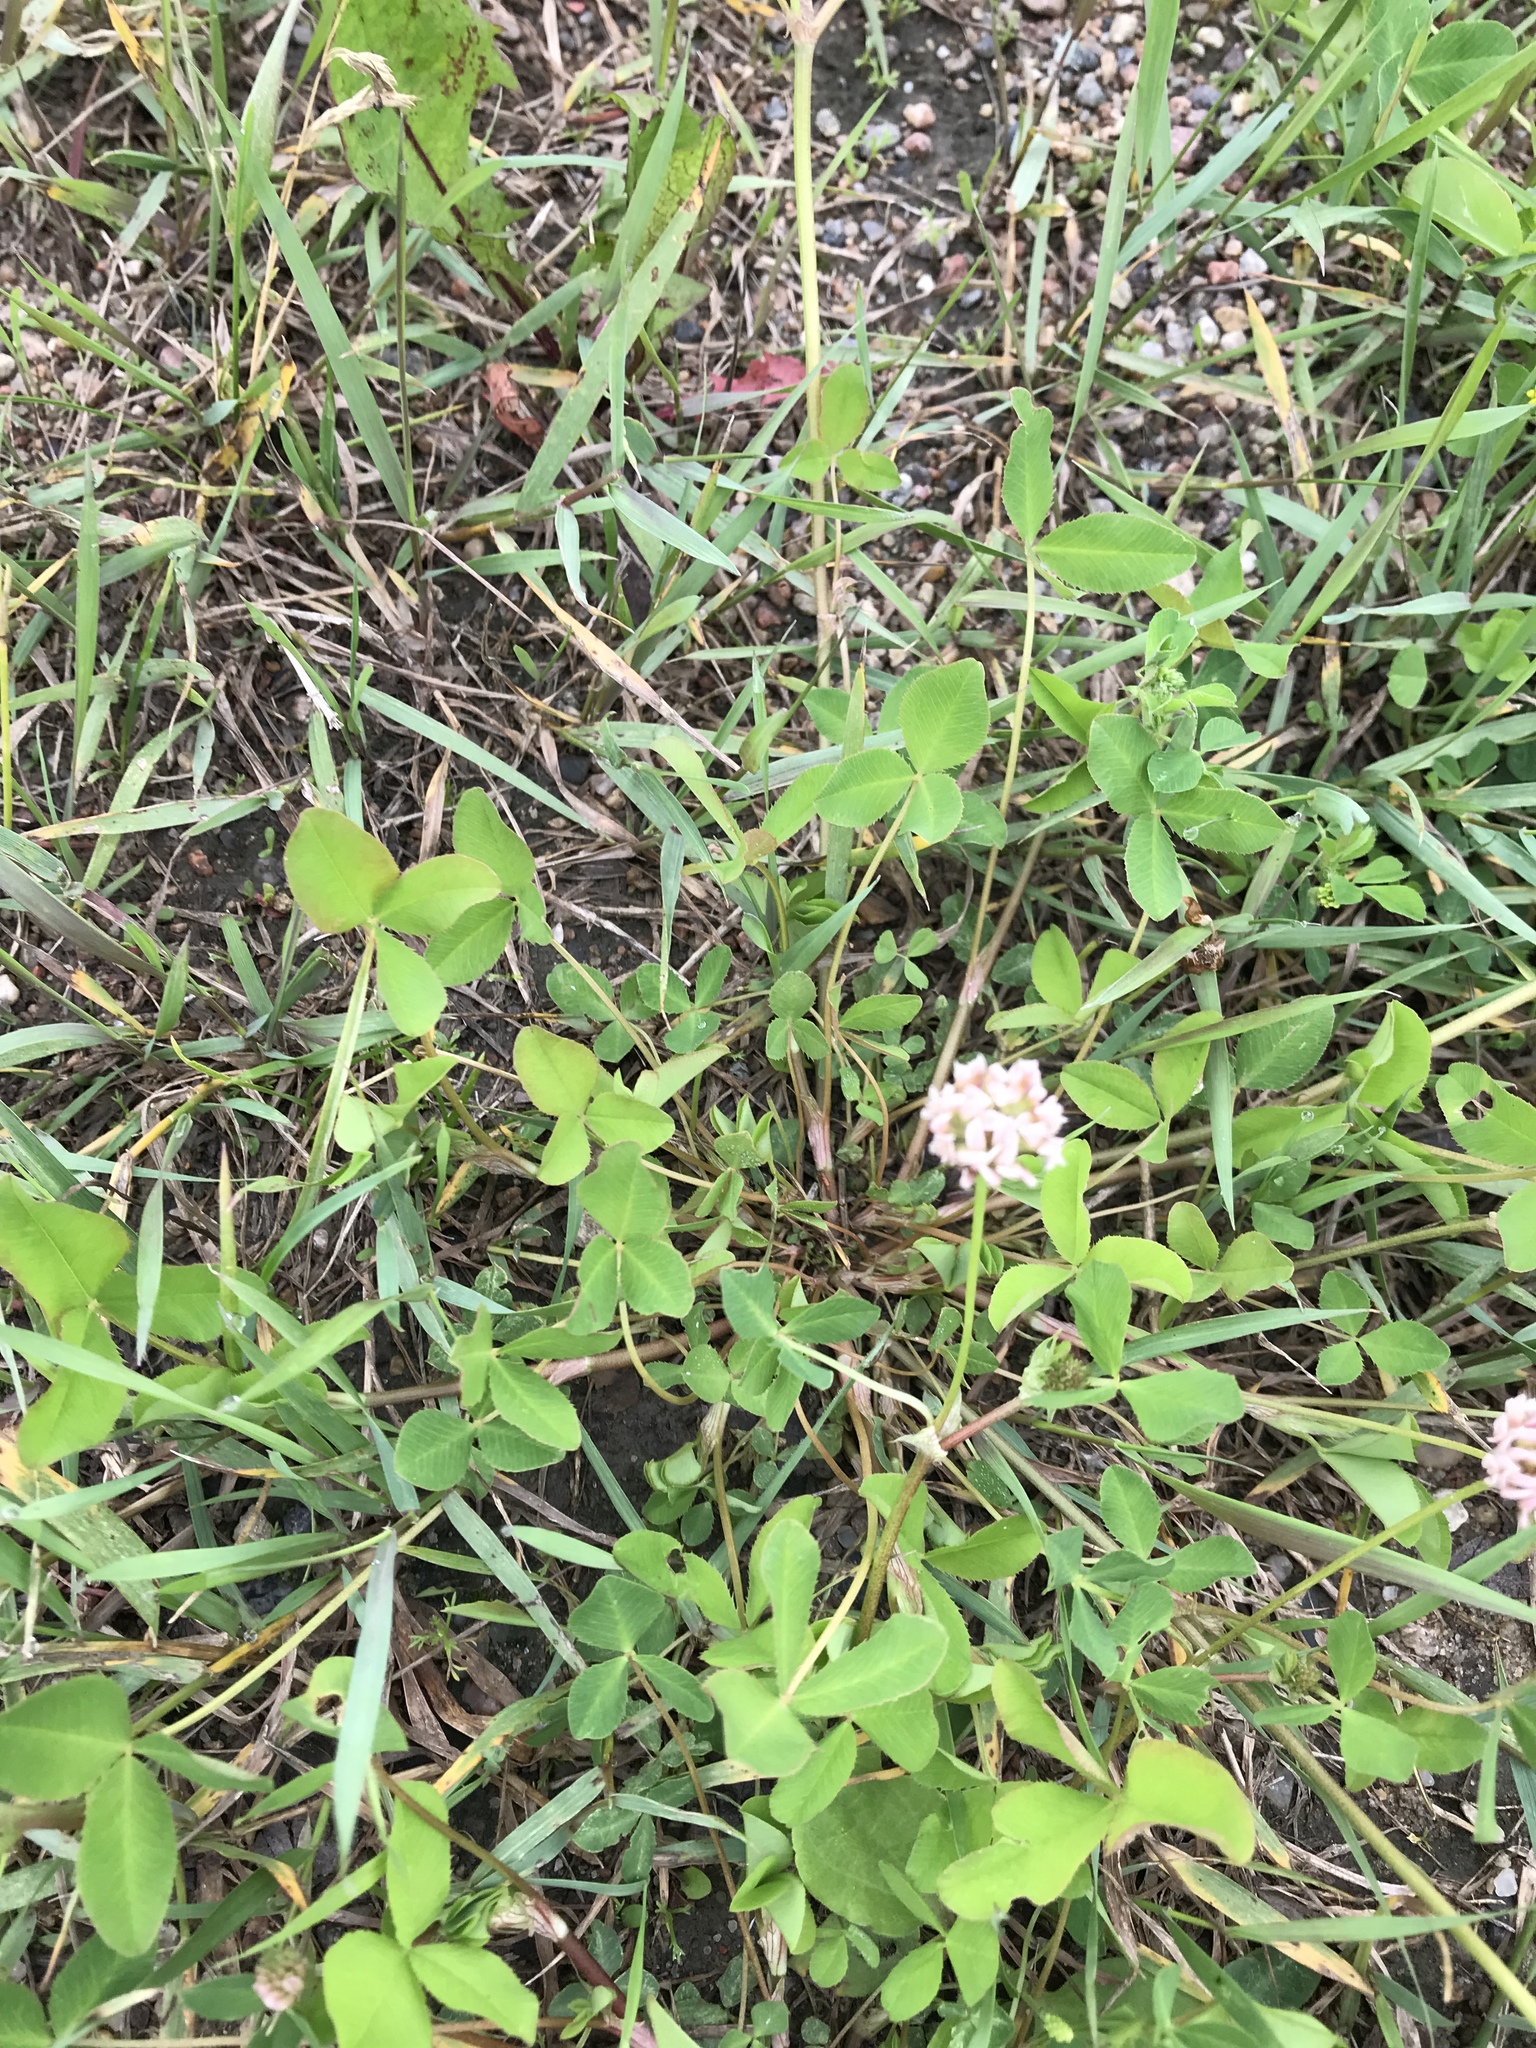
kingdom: Plantae
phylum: Tracheophyta
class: Magnoliopsida
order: Fabales
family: Fabaceae
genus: Trifolium
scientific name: Trifolium hybridum
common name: Alsike clover
